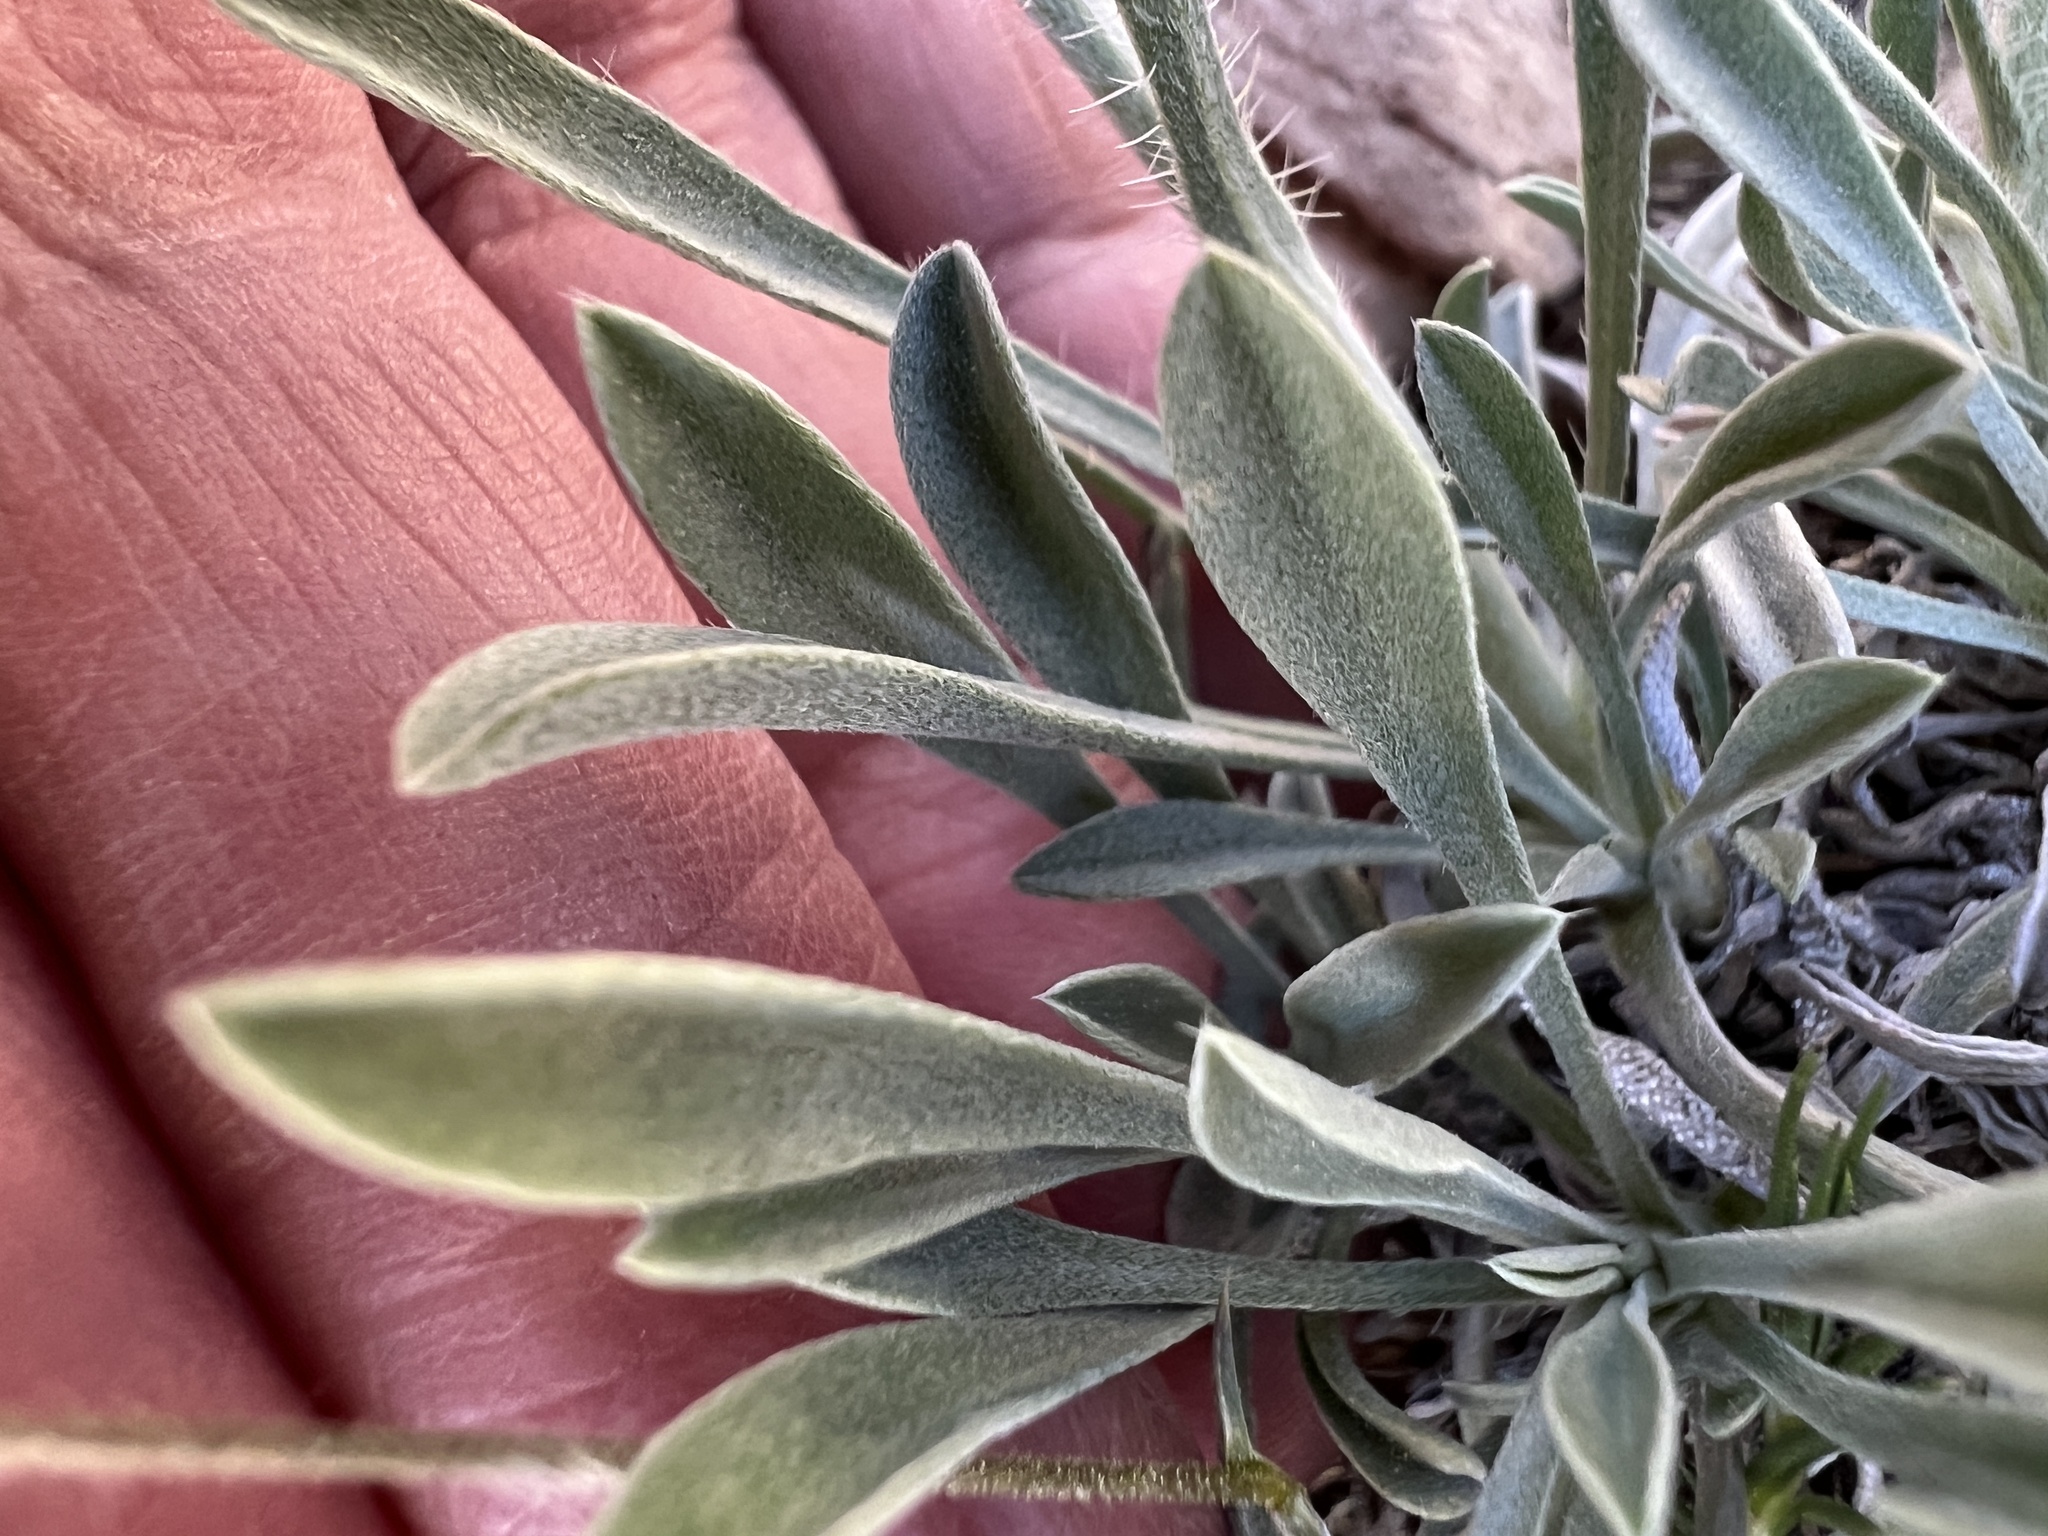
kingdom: Plantae
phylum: Tracheophyta
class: Magnoliopsida
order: Boraginales
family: Boraginaceae
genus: Oreocarya
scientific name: Oreocarya flavoculata
